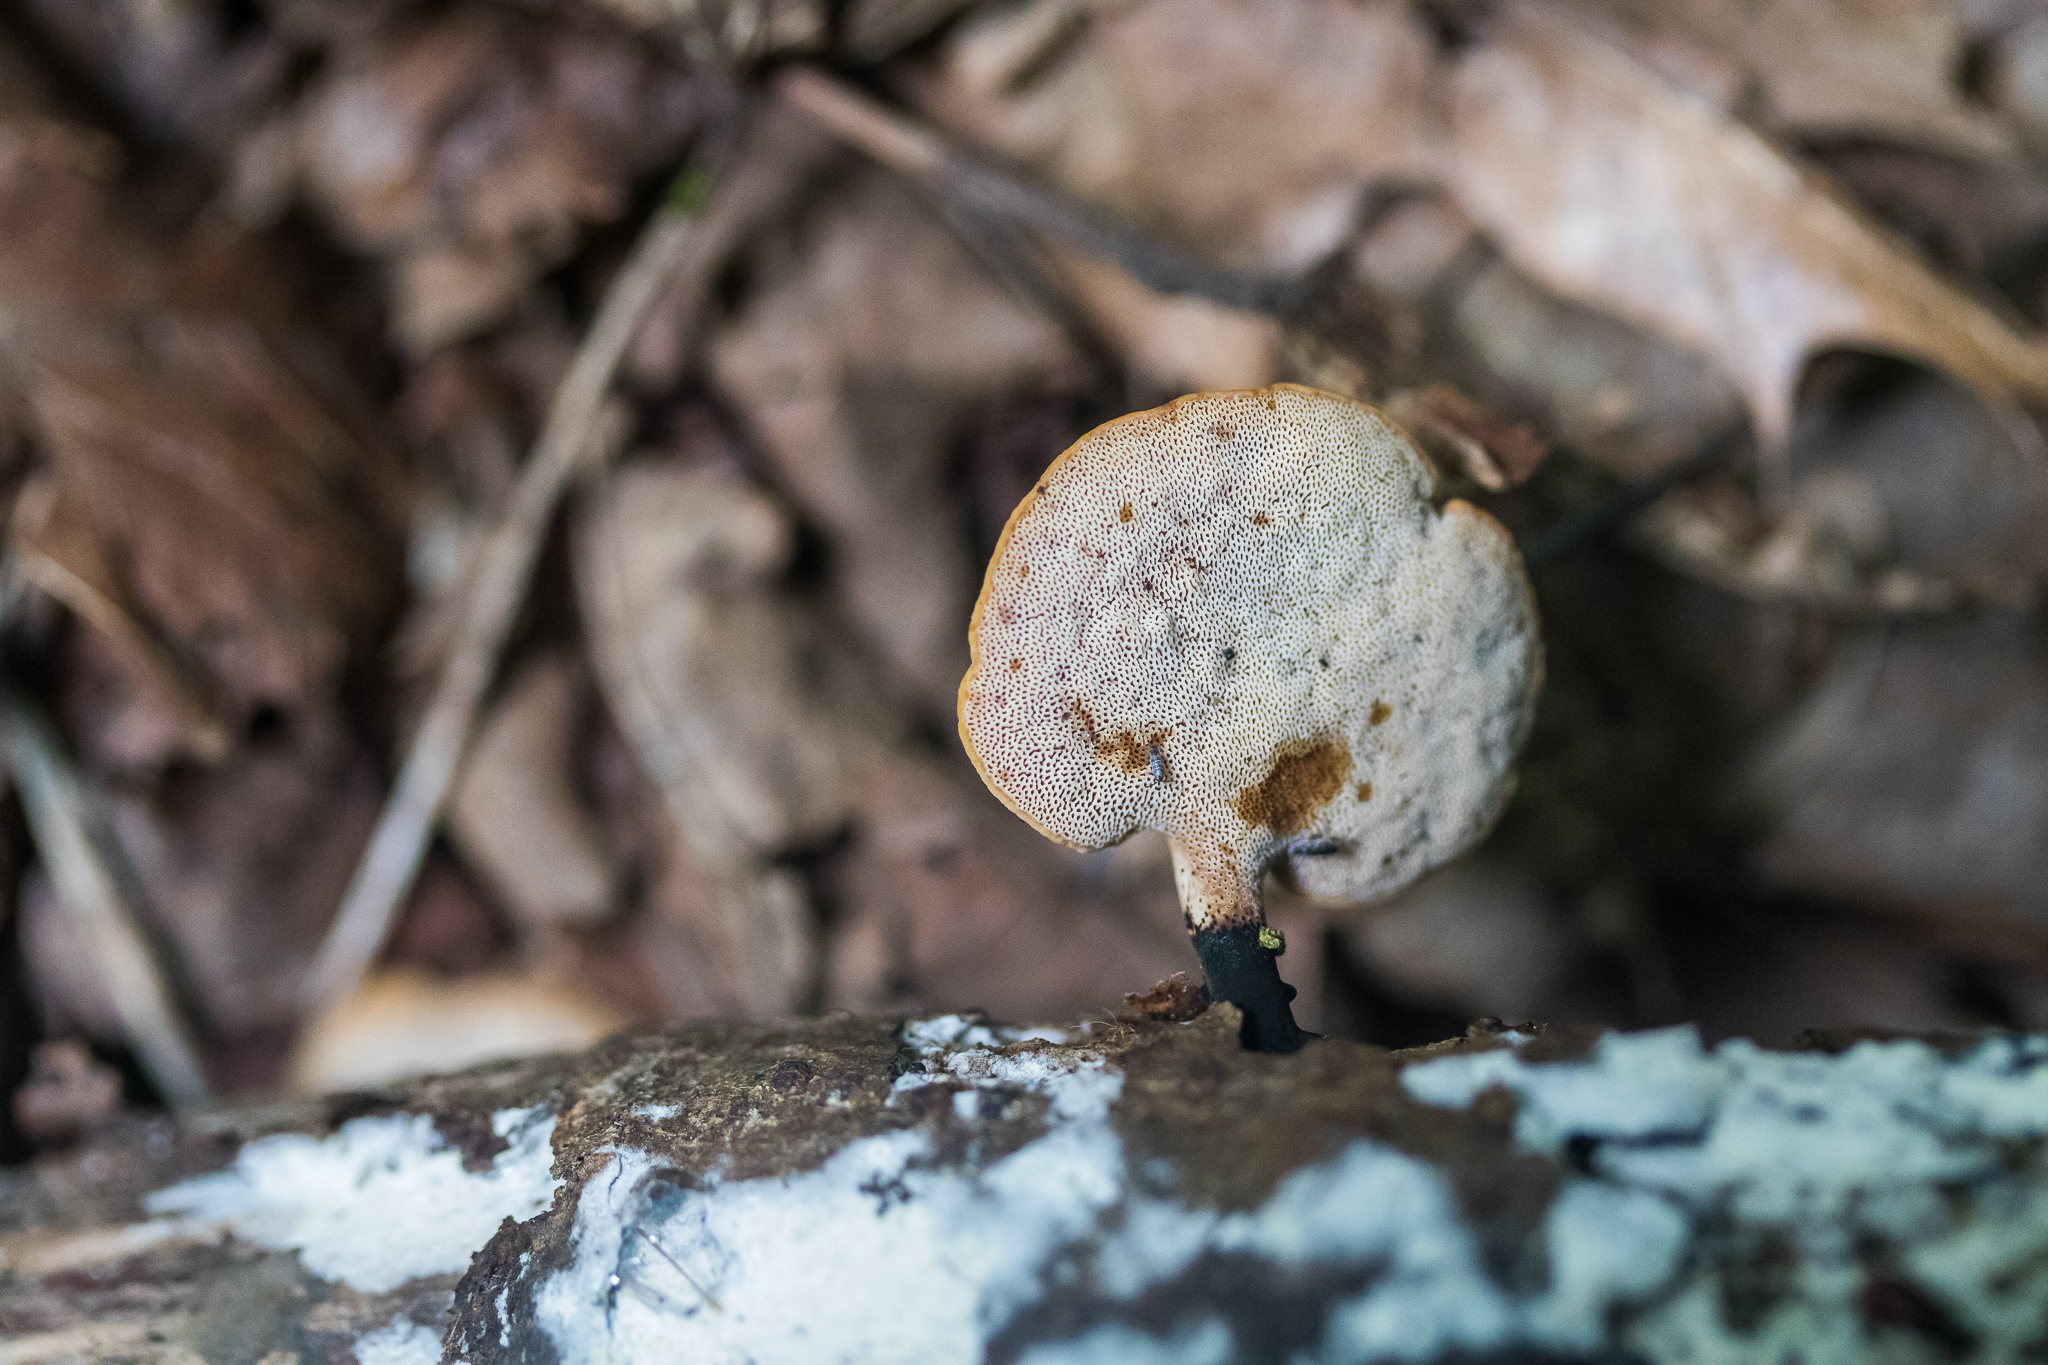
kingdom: Fungi
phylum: Basidiomycota
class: Agaricomycetes
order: Polyporales
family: Polyporaceae
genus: Cerioporus
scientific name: Cerioporus leptocephalus
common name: Blackfoot polypore
